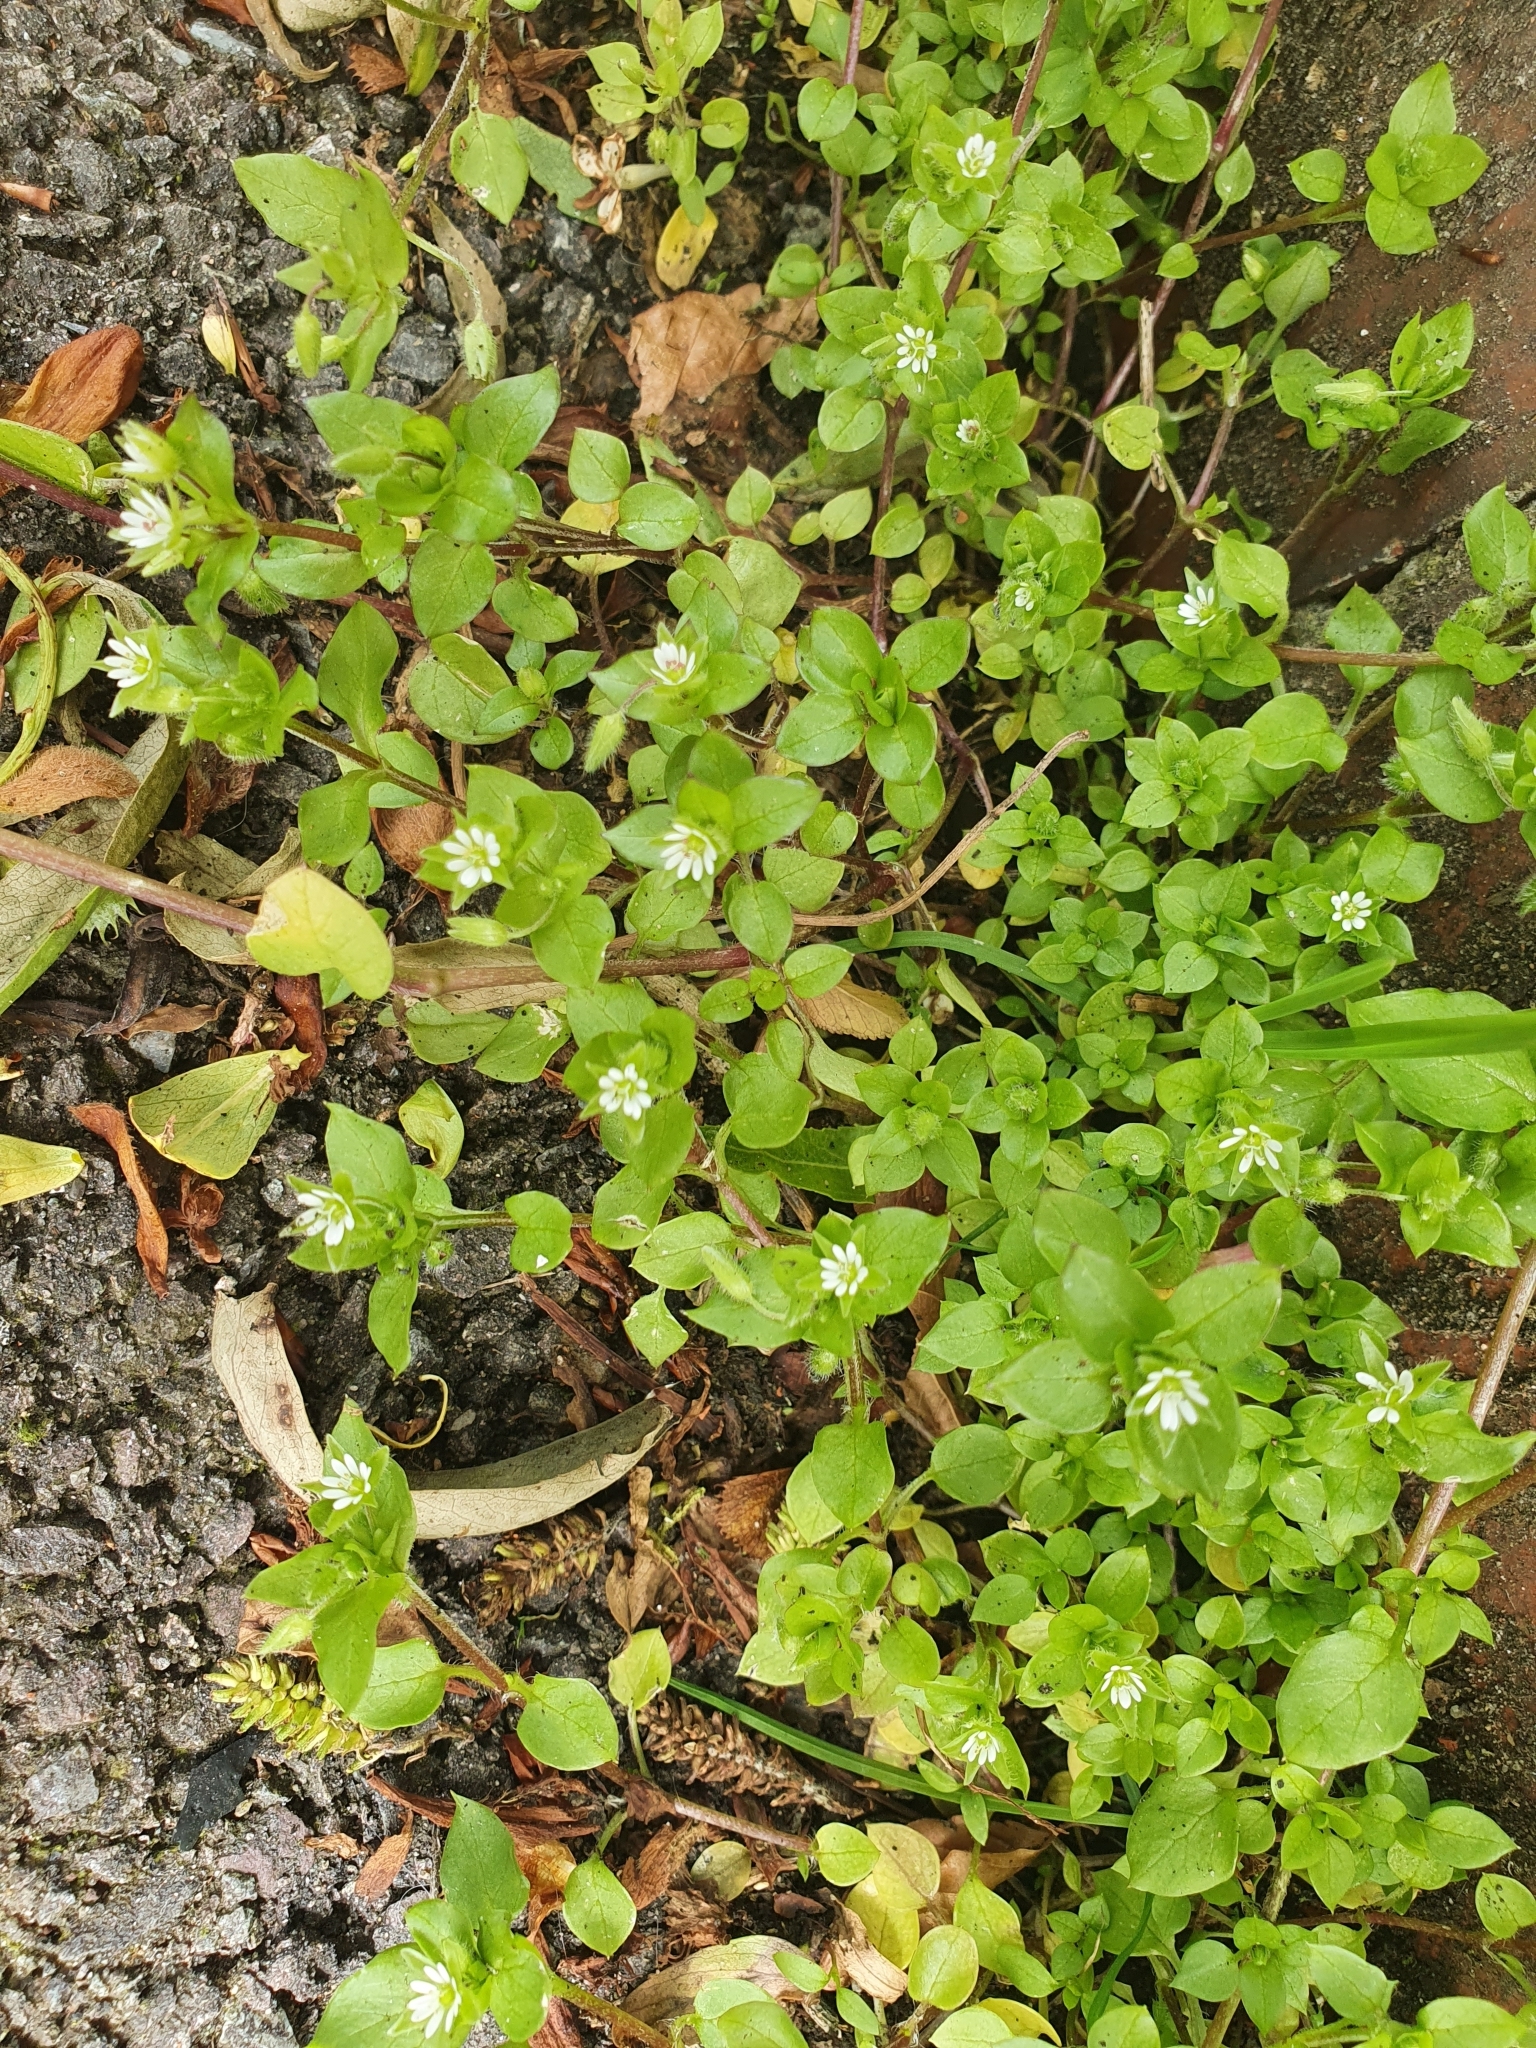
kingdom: Plantae
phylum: Tracheophyta
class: Magnoliopsida
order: Caryophyllales
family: Caryophyllaceae
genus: Stellaria
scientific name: Stellaria media
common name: Common chickweed
